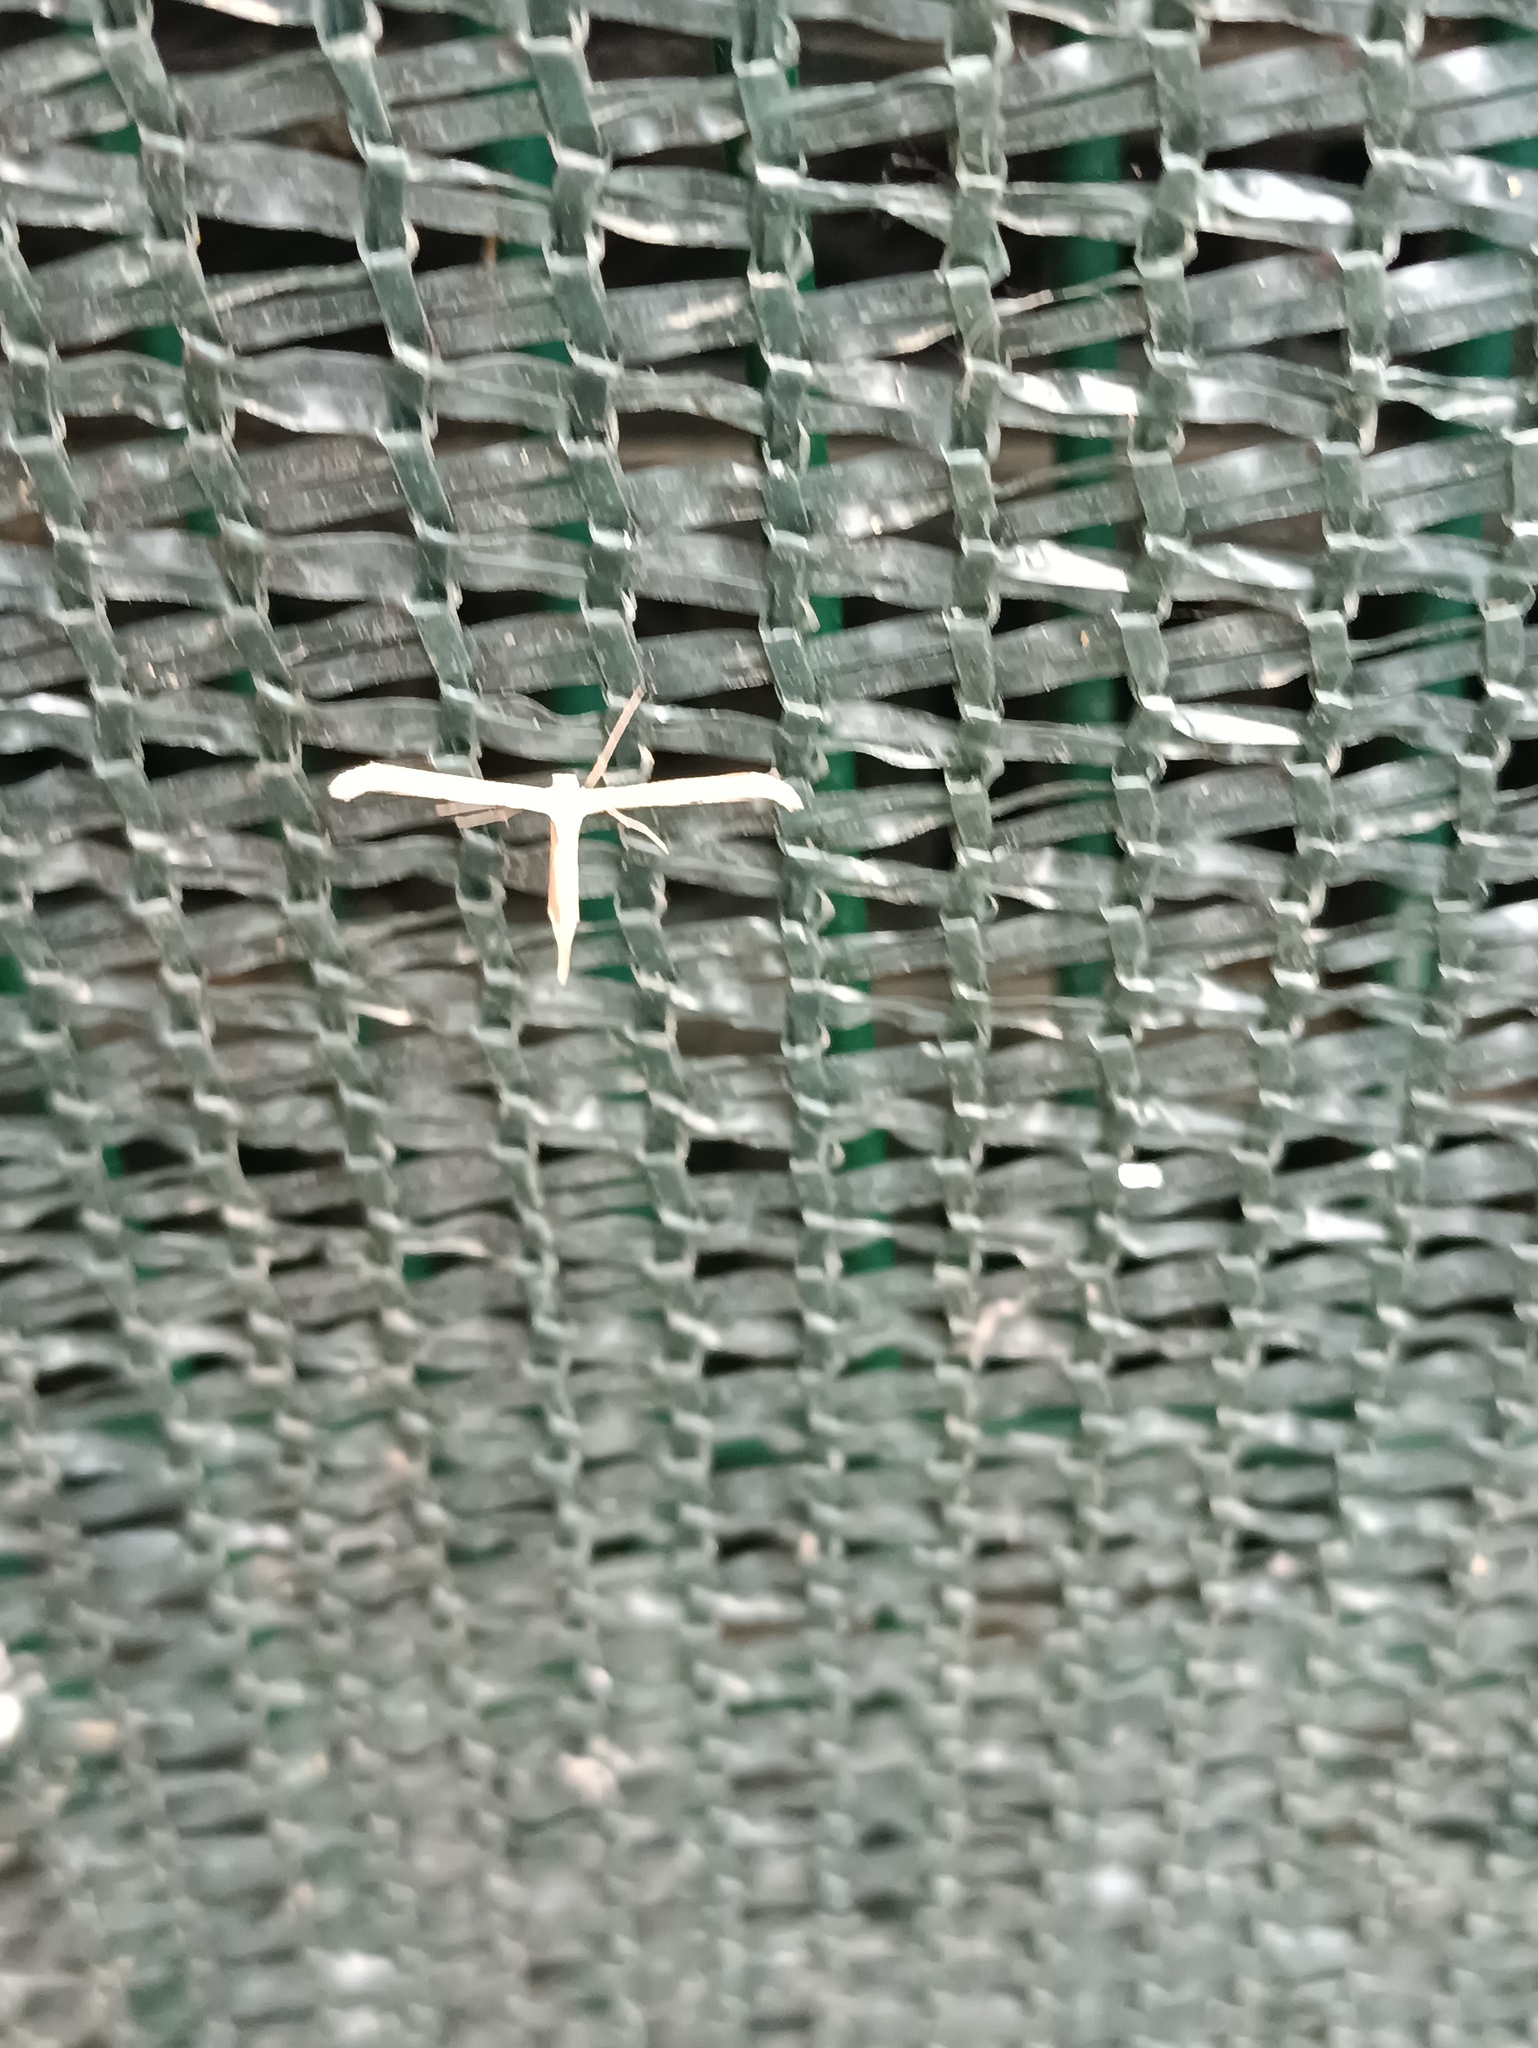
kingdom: Animalia
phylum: Arthropoda
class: Insecta
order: Lepidoptera
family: Pterophoridae
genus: Emmelina
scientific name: Emmelina monodactyla
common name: Common plume
